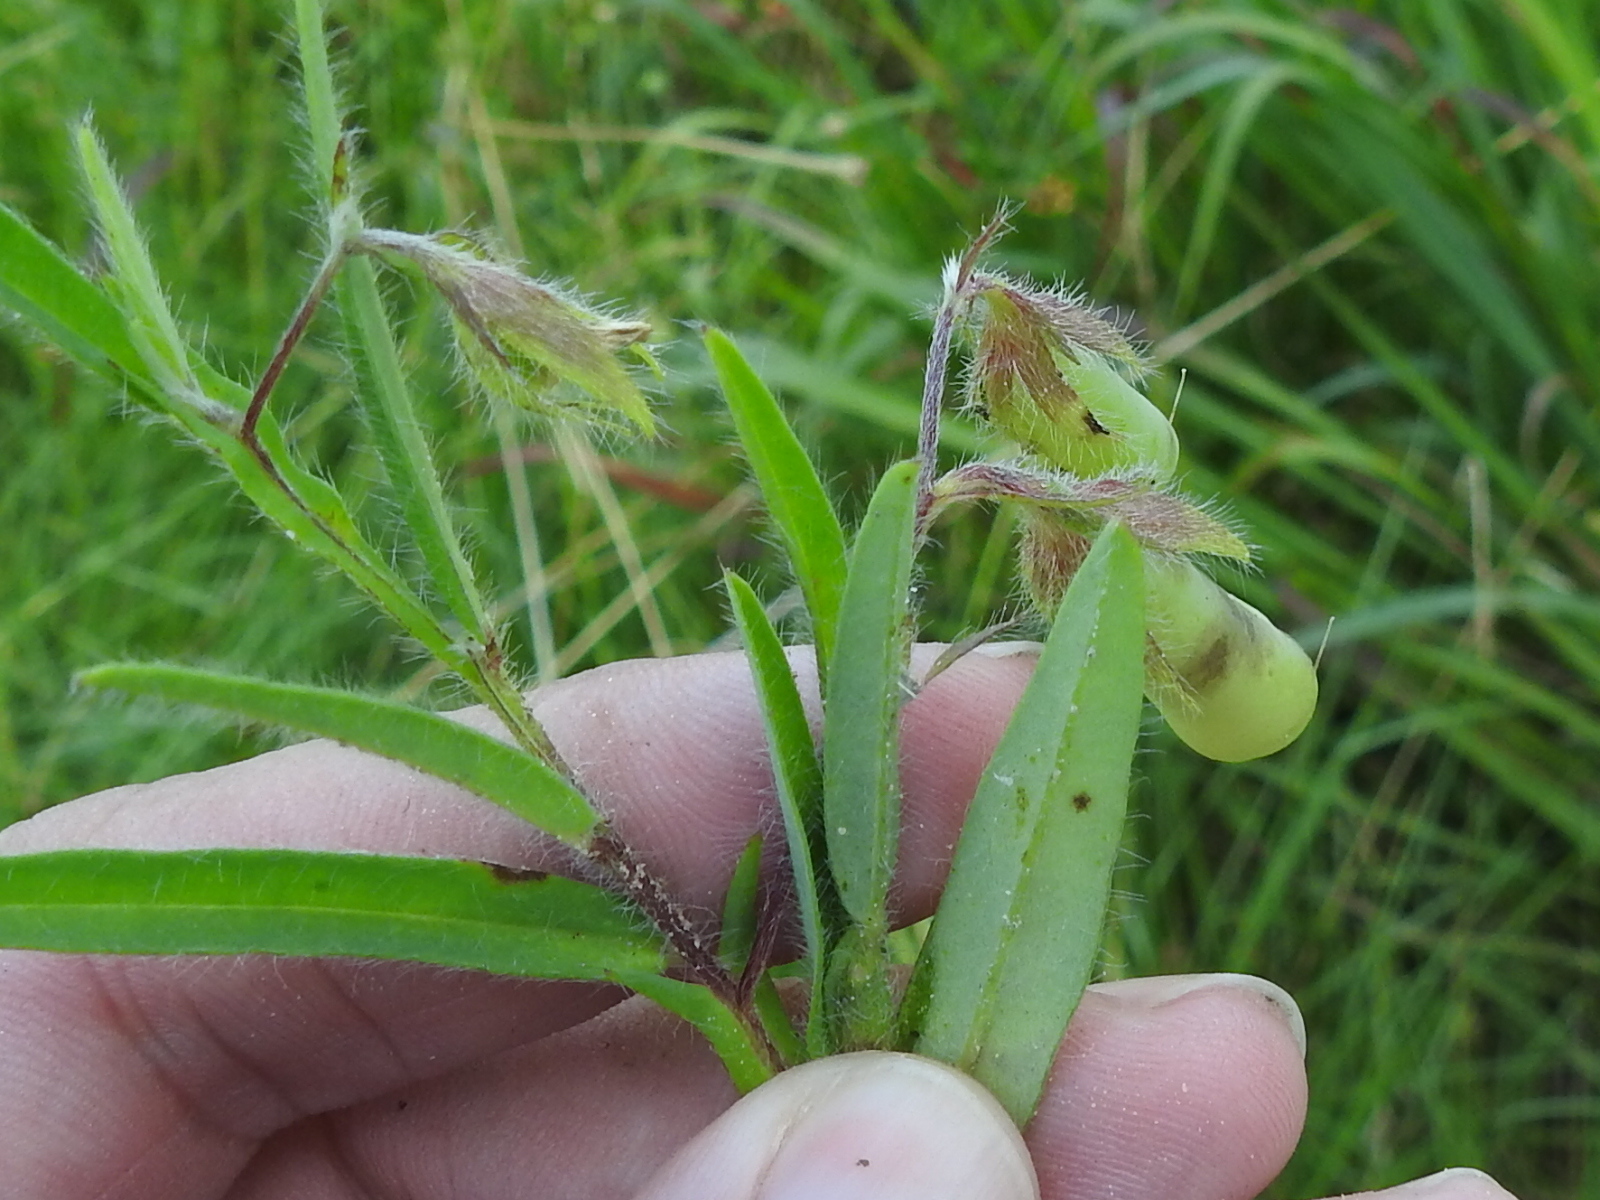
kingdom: Plantae
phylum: Tracheophyta
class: Magnoliopsida
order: Fabales
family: Fabaceae
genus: Crotalaria
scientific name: Crotalaria sagittalis
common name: Arrowhead rattlebox
